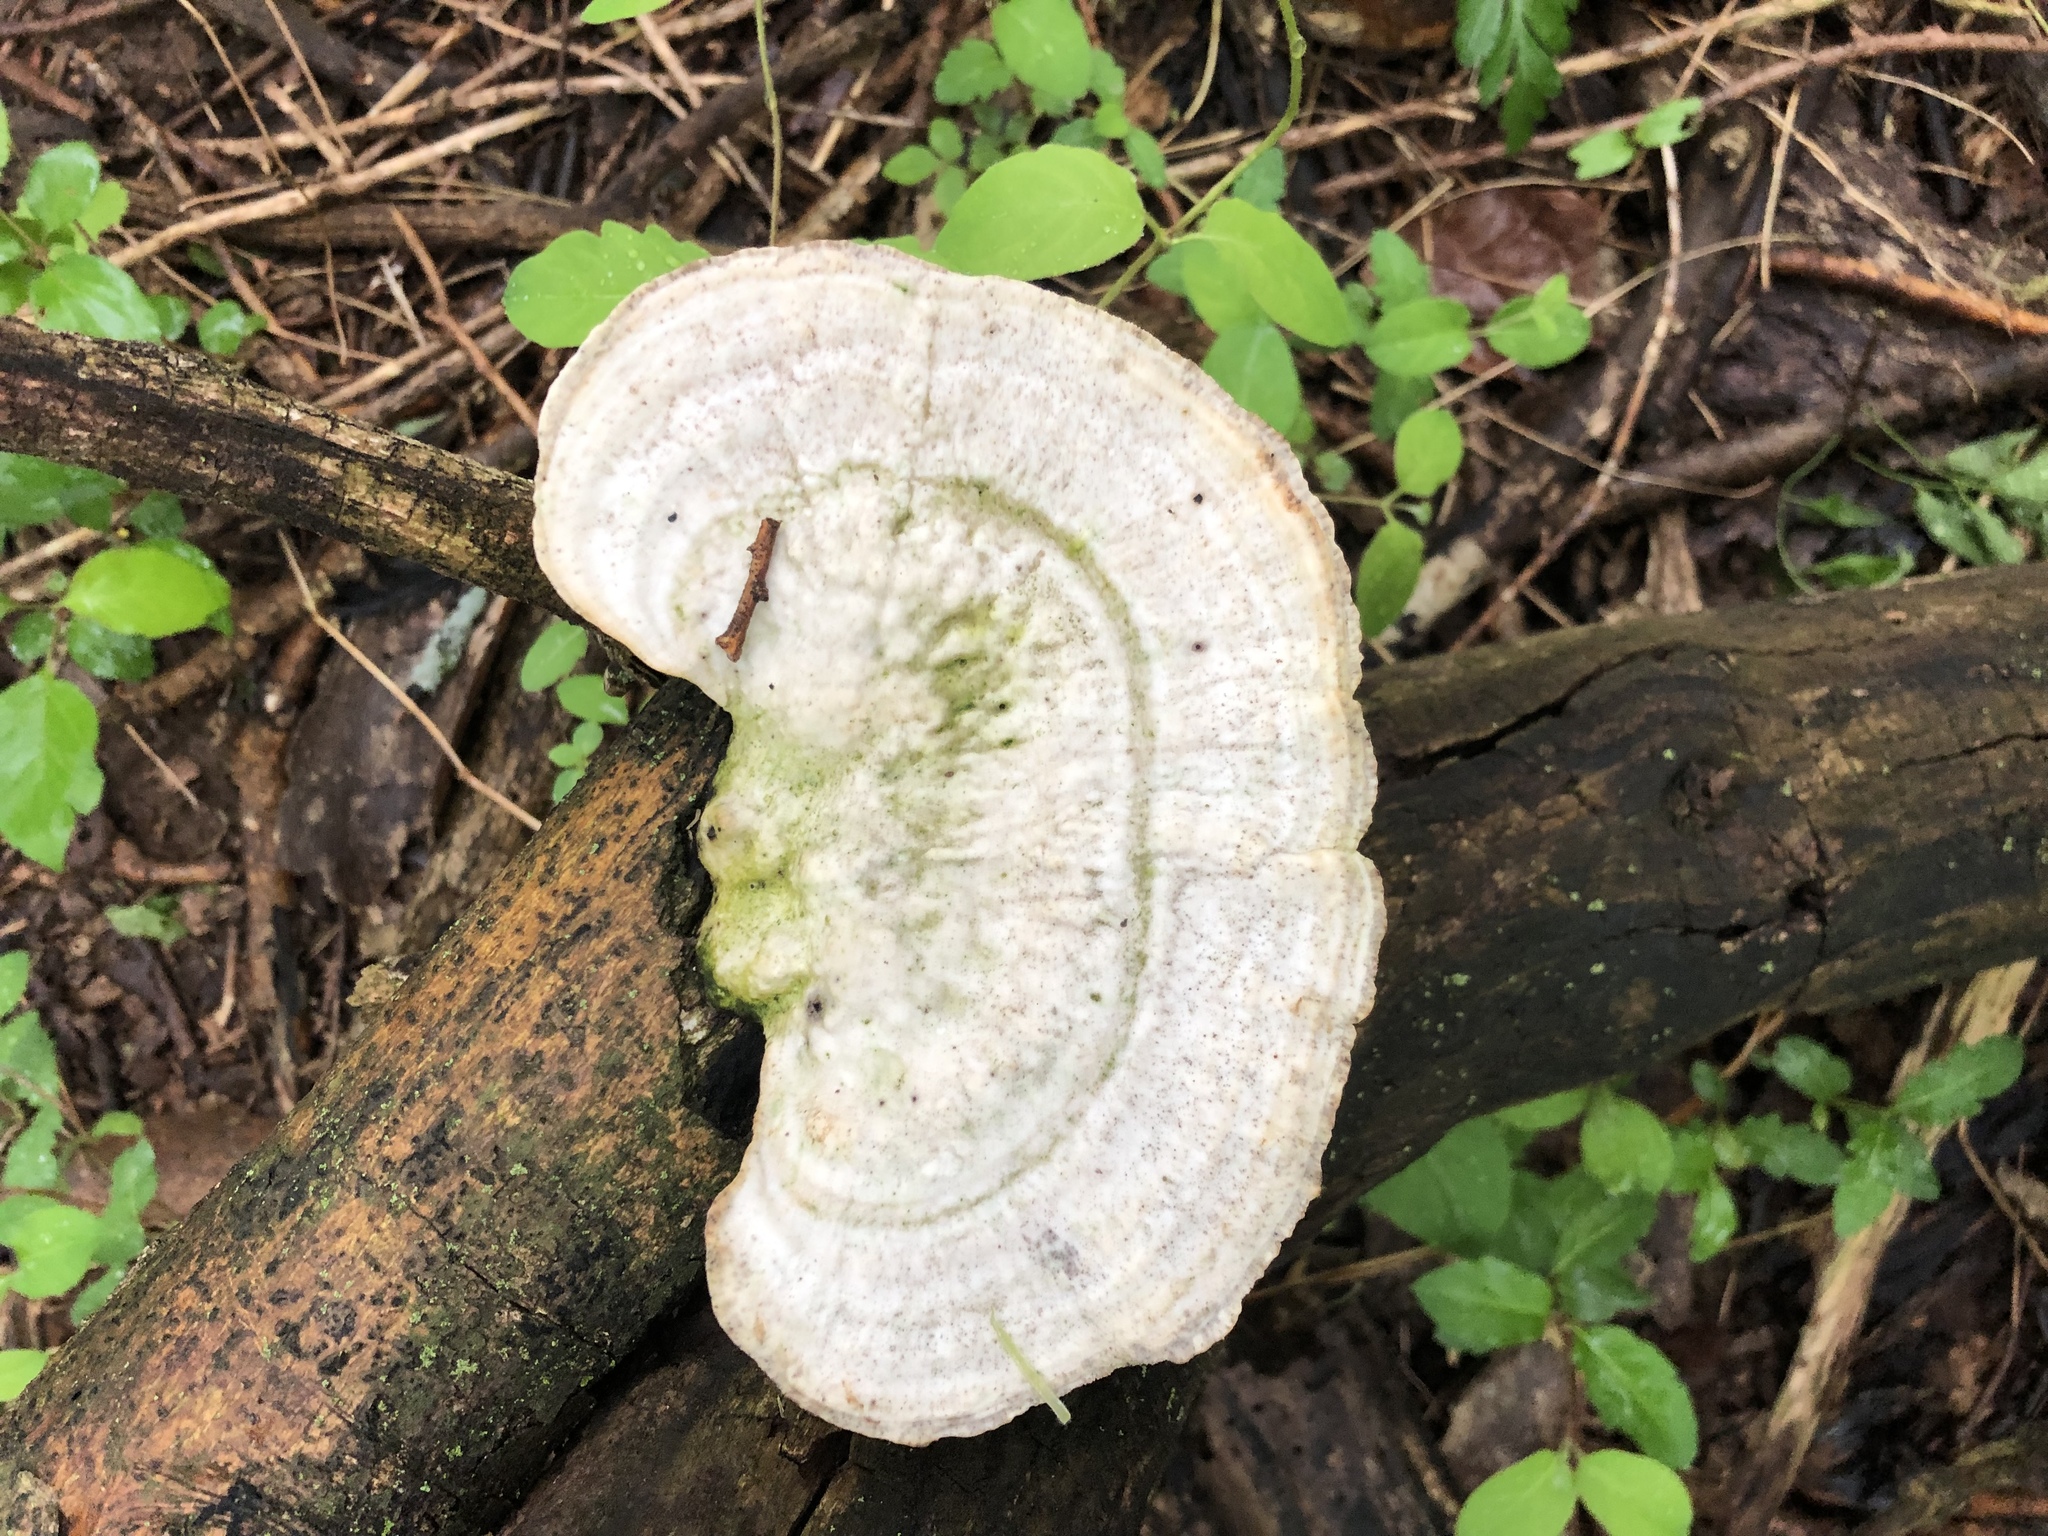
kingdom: Fungi
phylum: Basidiomycota
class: Agaricomycetes
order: Polyporales
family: Polyporaceae
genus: Trametes
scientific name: Trametes gibbosa
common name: Lumpy bracket
